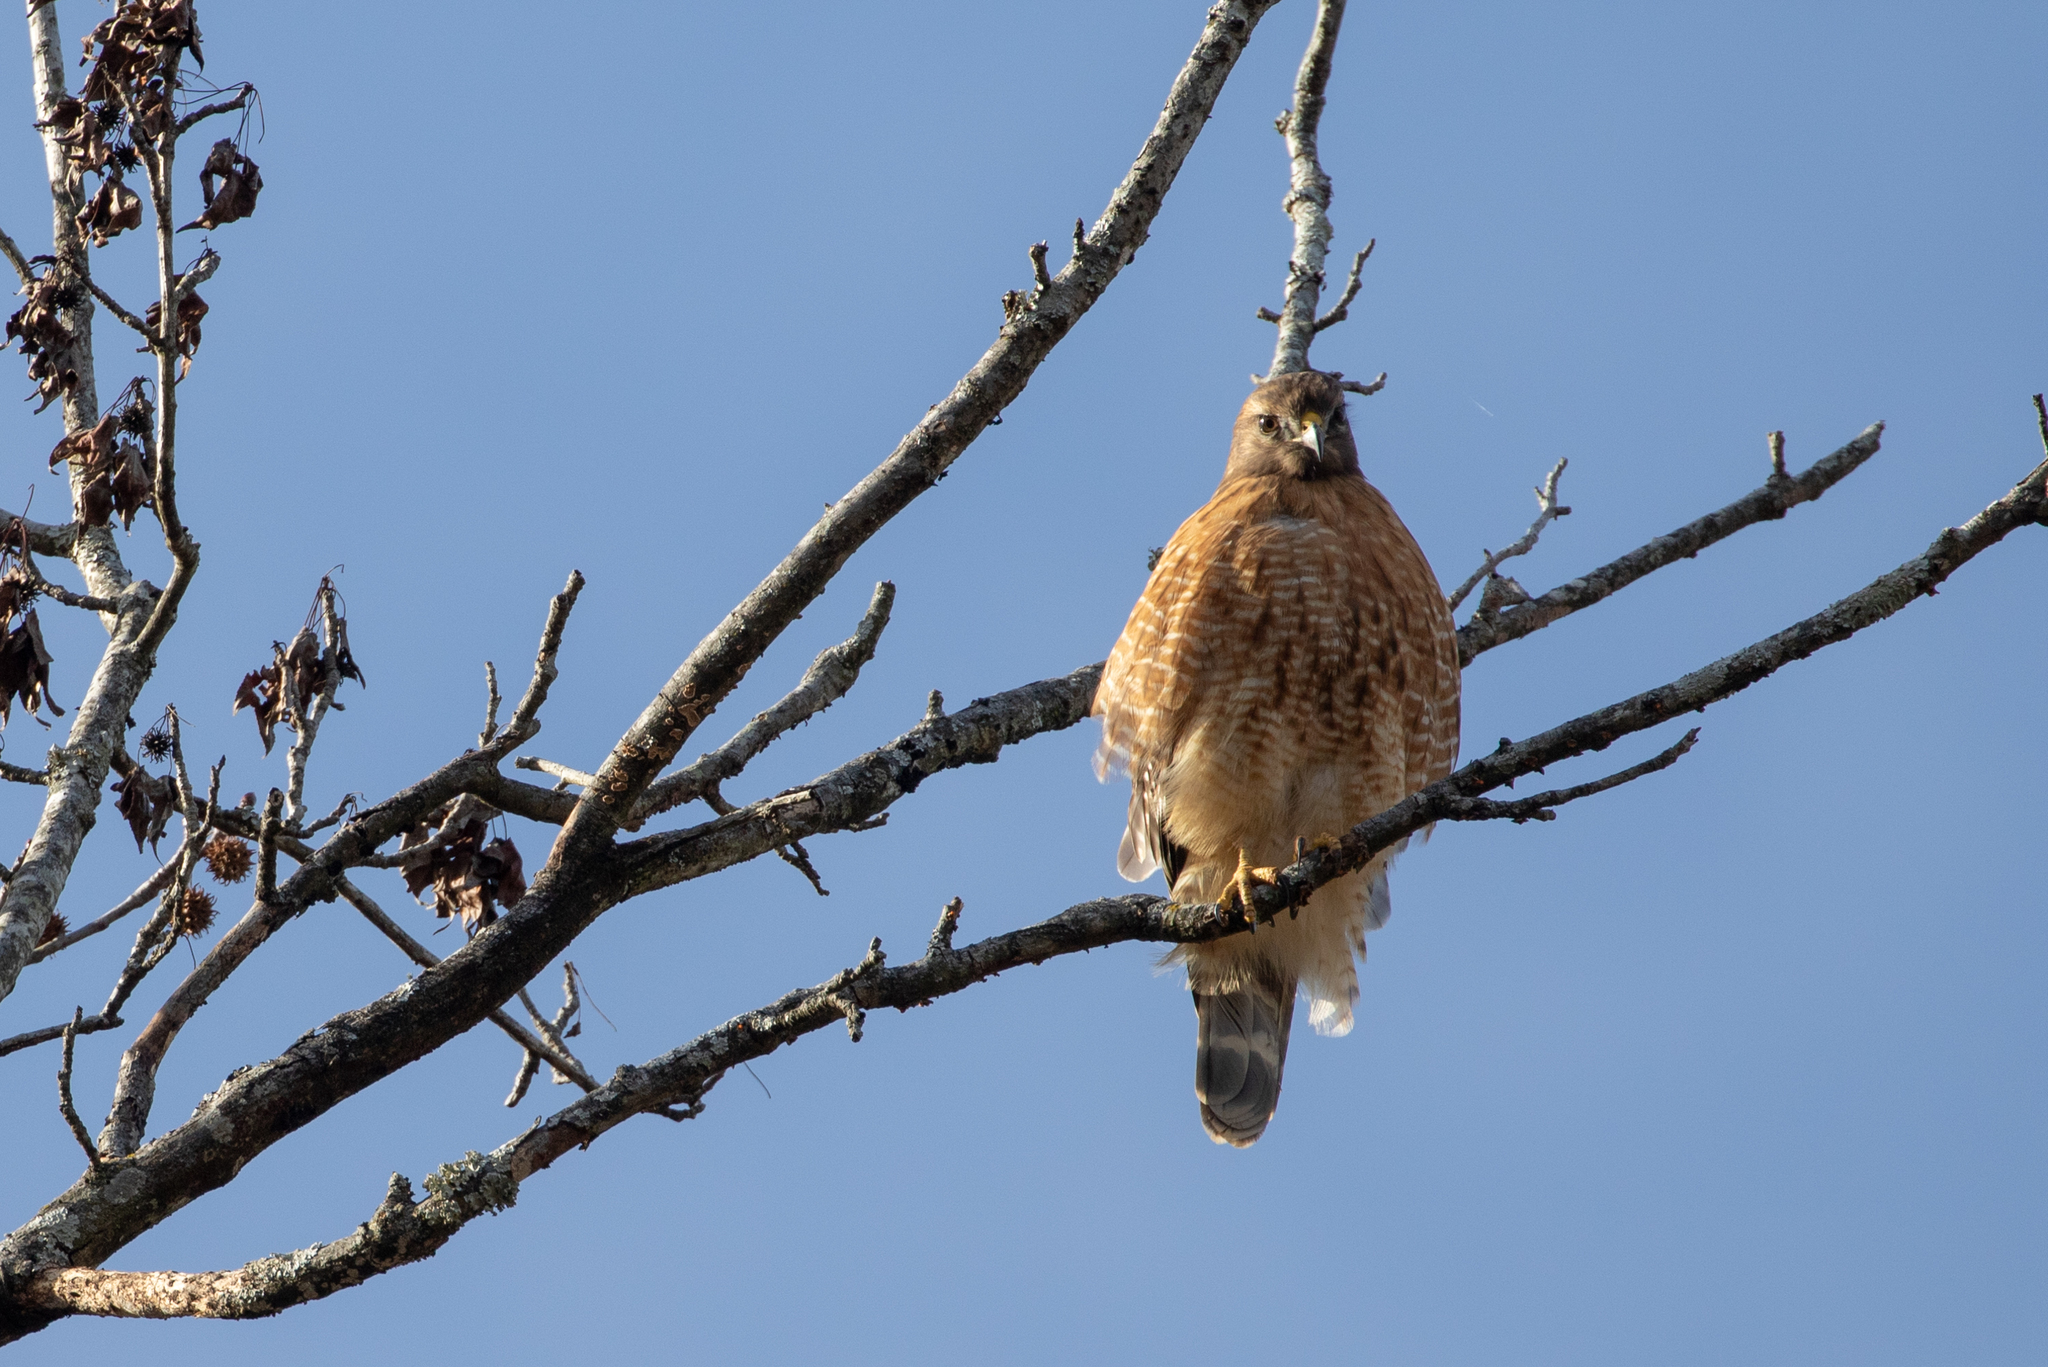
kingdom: Animalia
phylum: Chordata
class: Aves
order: Accipitriformes
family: Accipitridae
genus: Buteo
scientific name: Buteo lineatus
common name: Red-shouldered hawk
